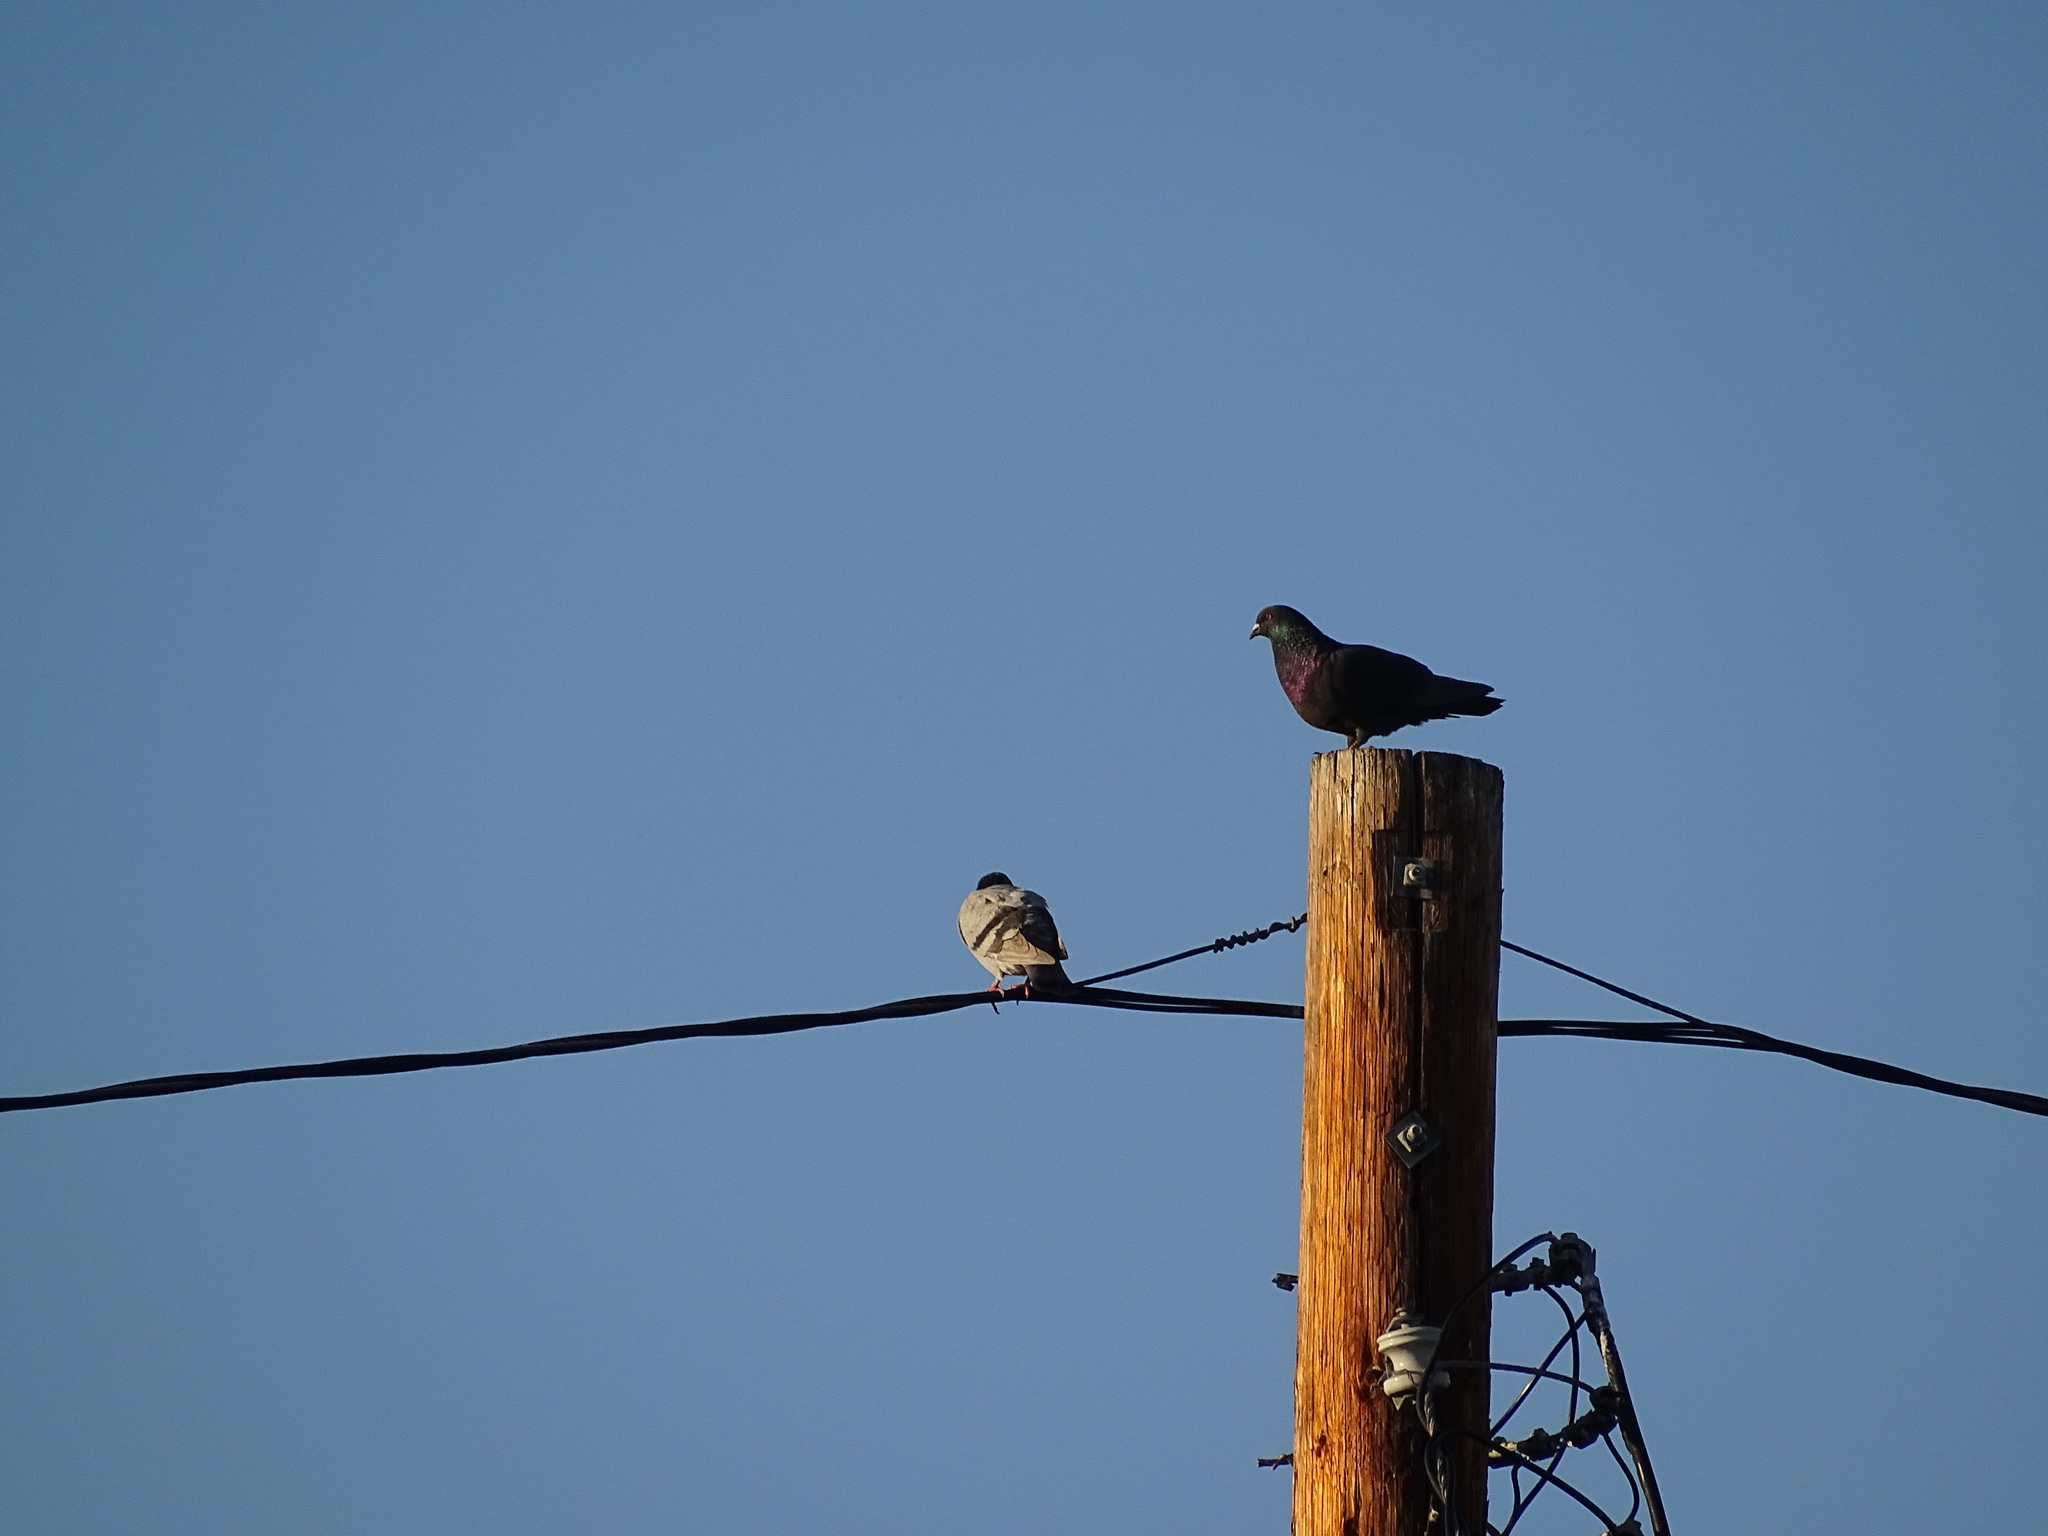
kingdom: Animalia
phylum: Chordata
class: Aves
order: Columbiformes
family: Columbidae
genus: Columba
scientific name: Columba livia
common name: Rock pigeon
